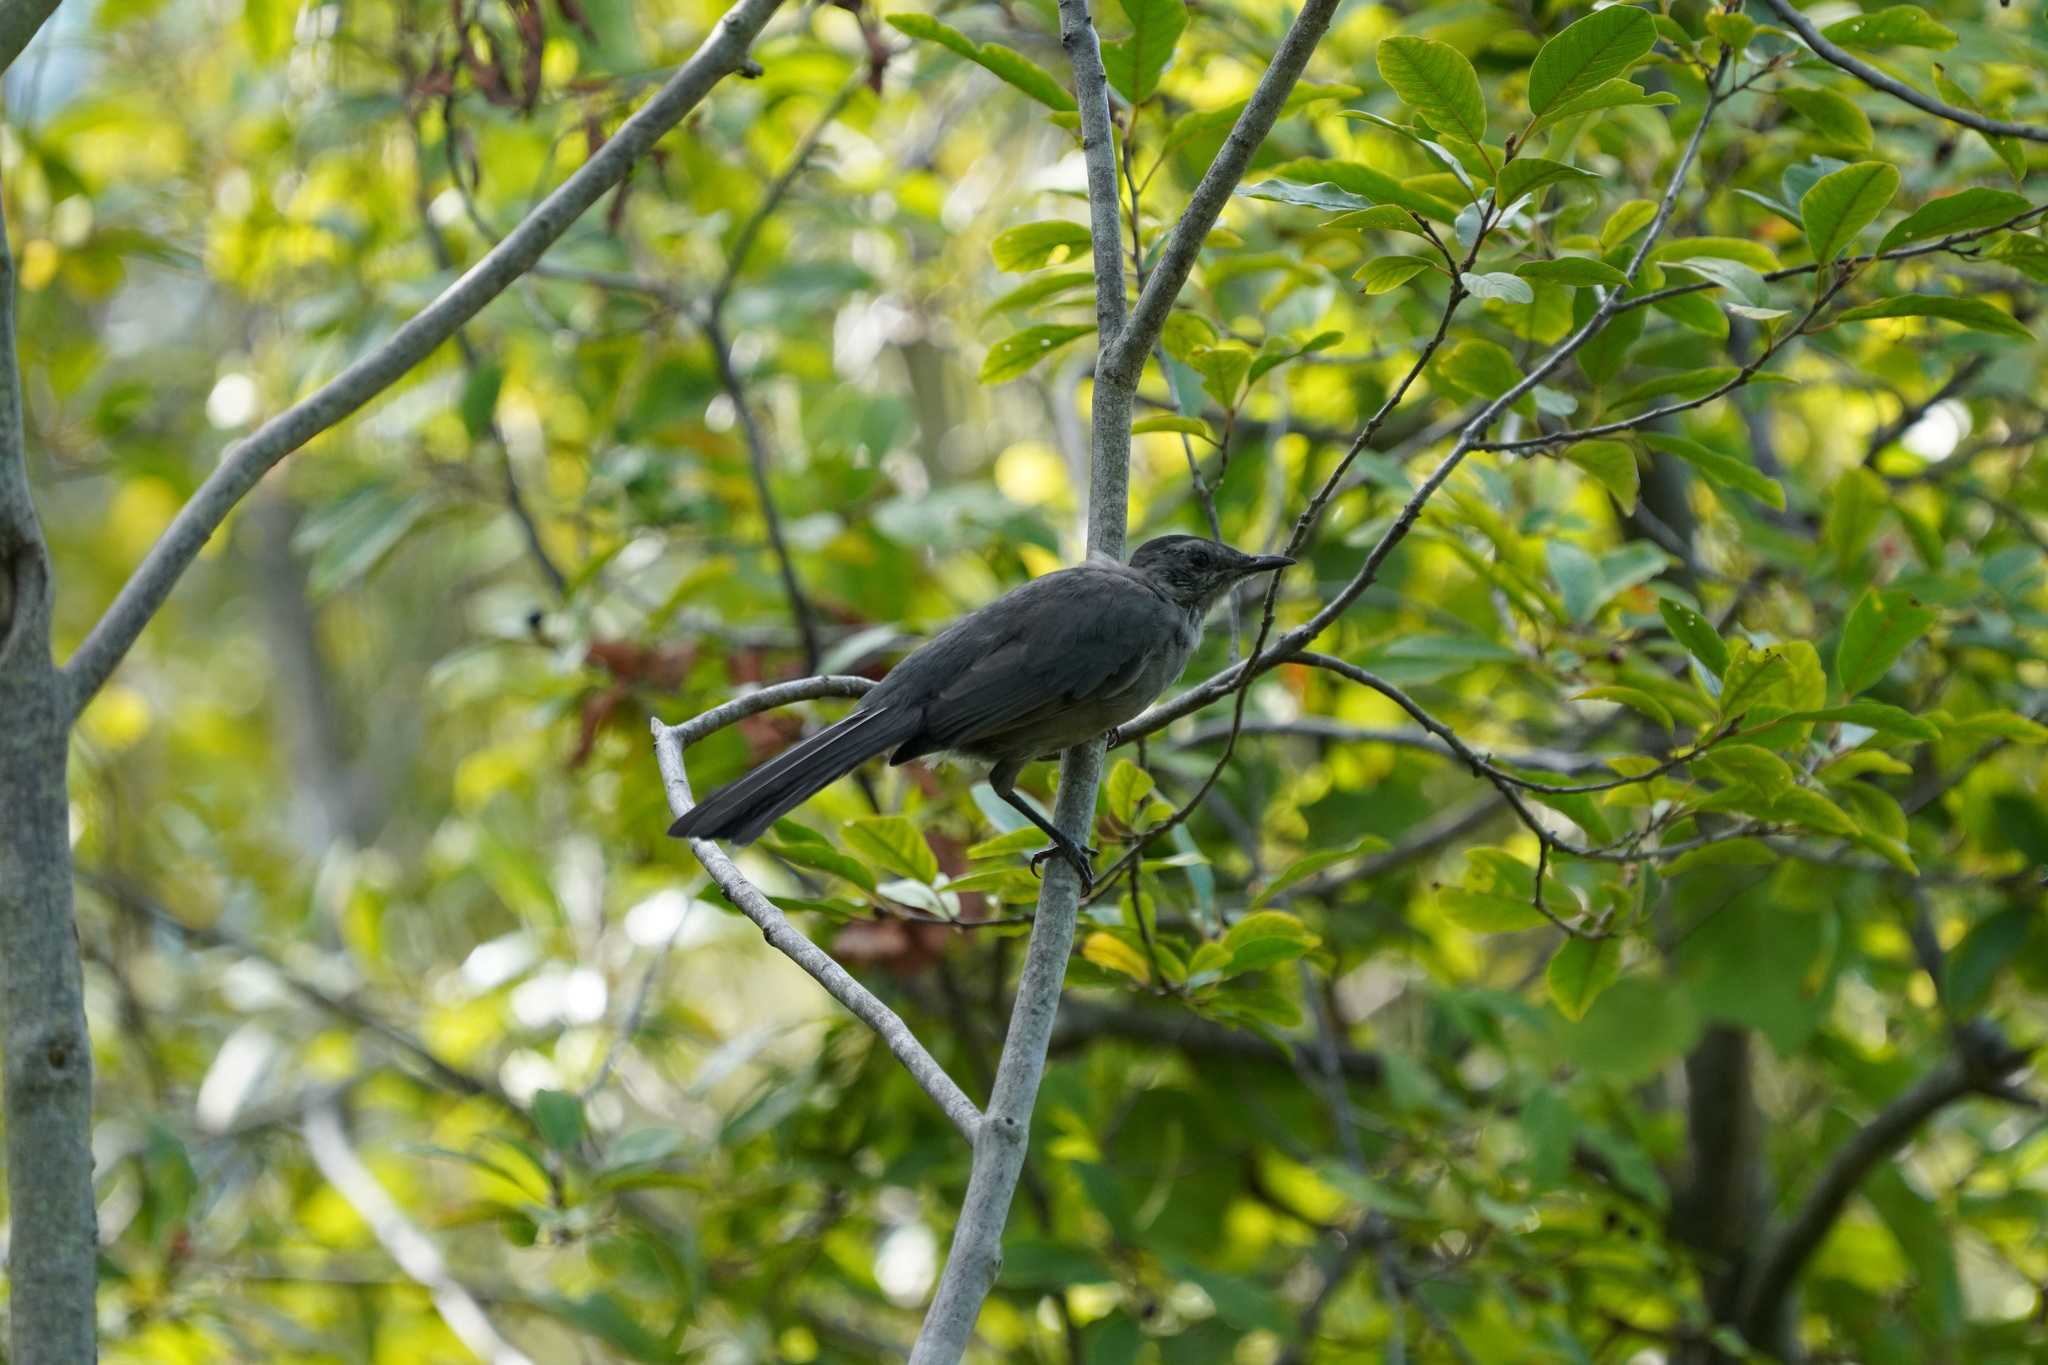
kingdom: Animalia
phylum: Chordata
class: Aves
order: Passeriformes
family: Mimidae
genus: Dumetella
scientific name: Dumetella carolinensis
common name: Gray catbird
